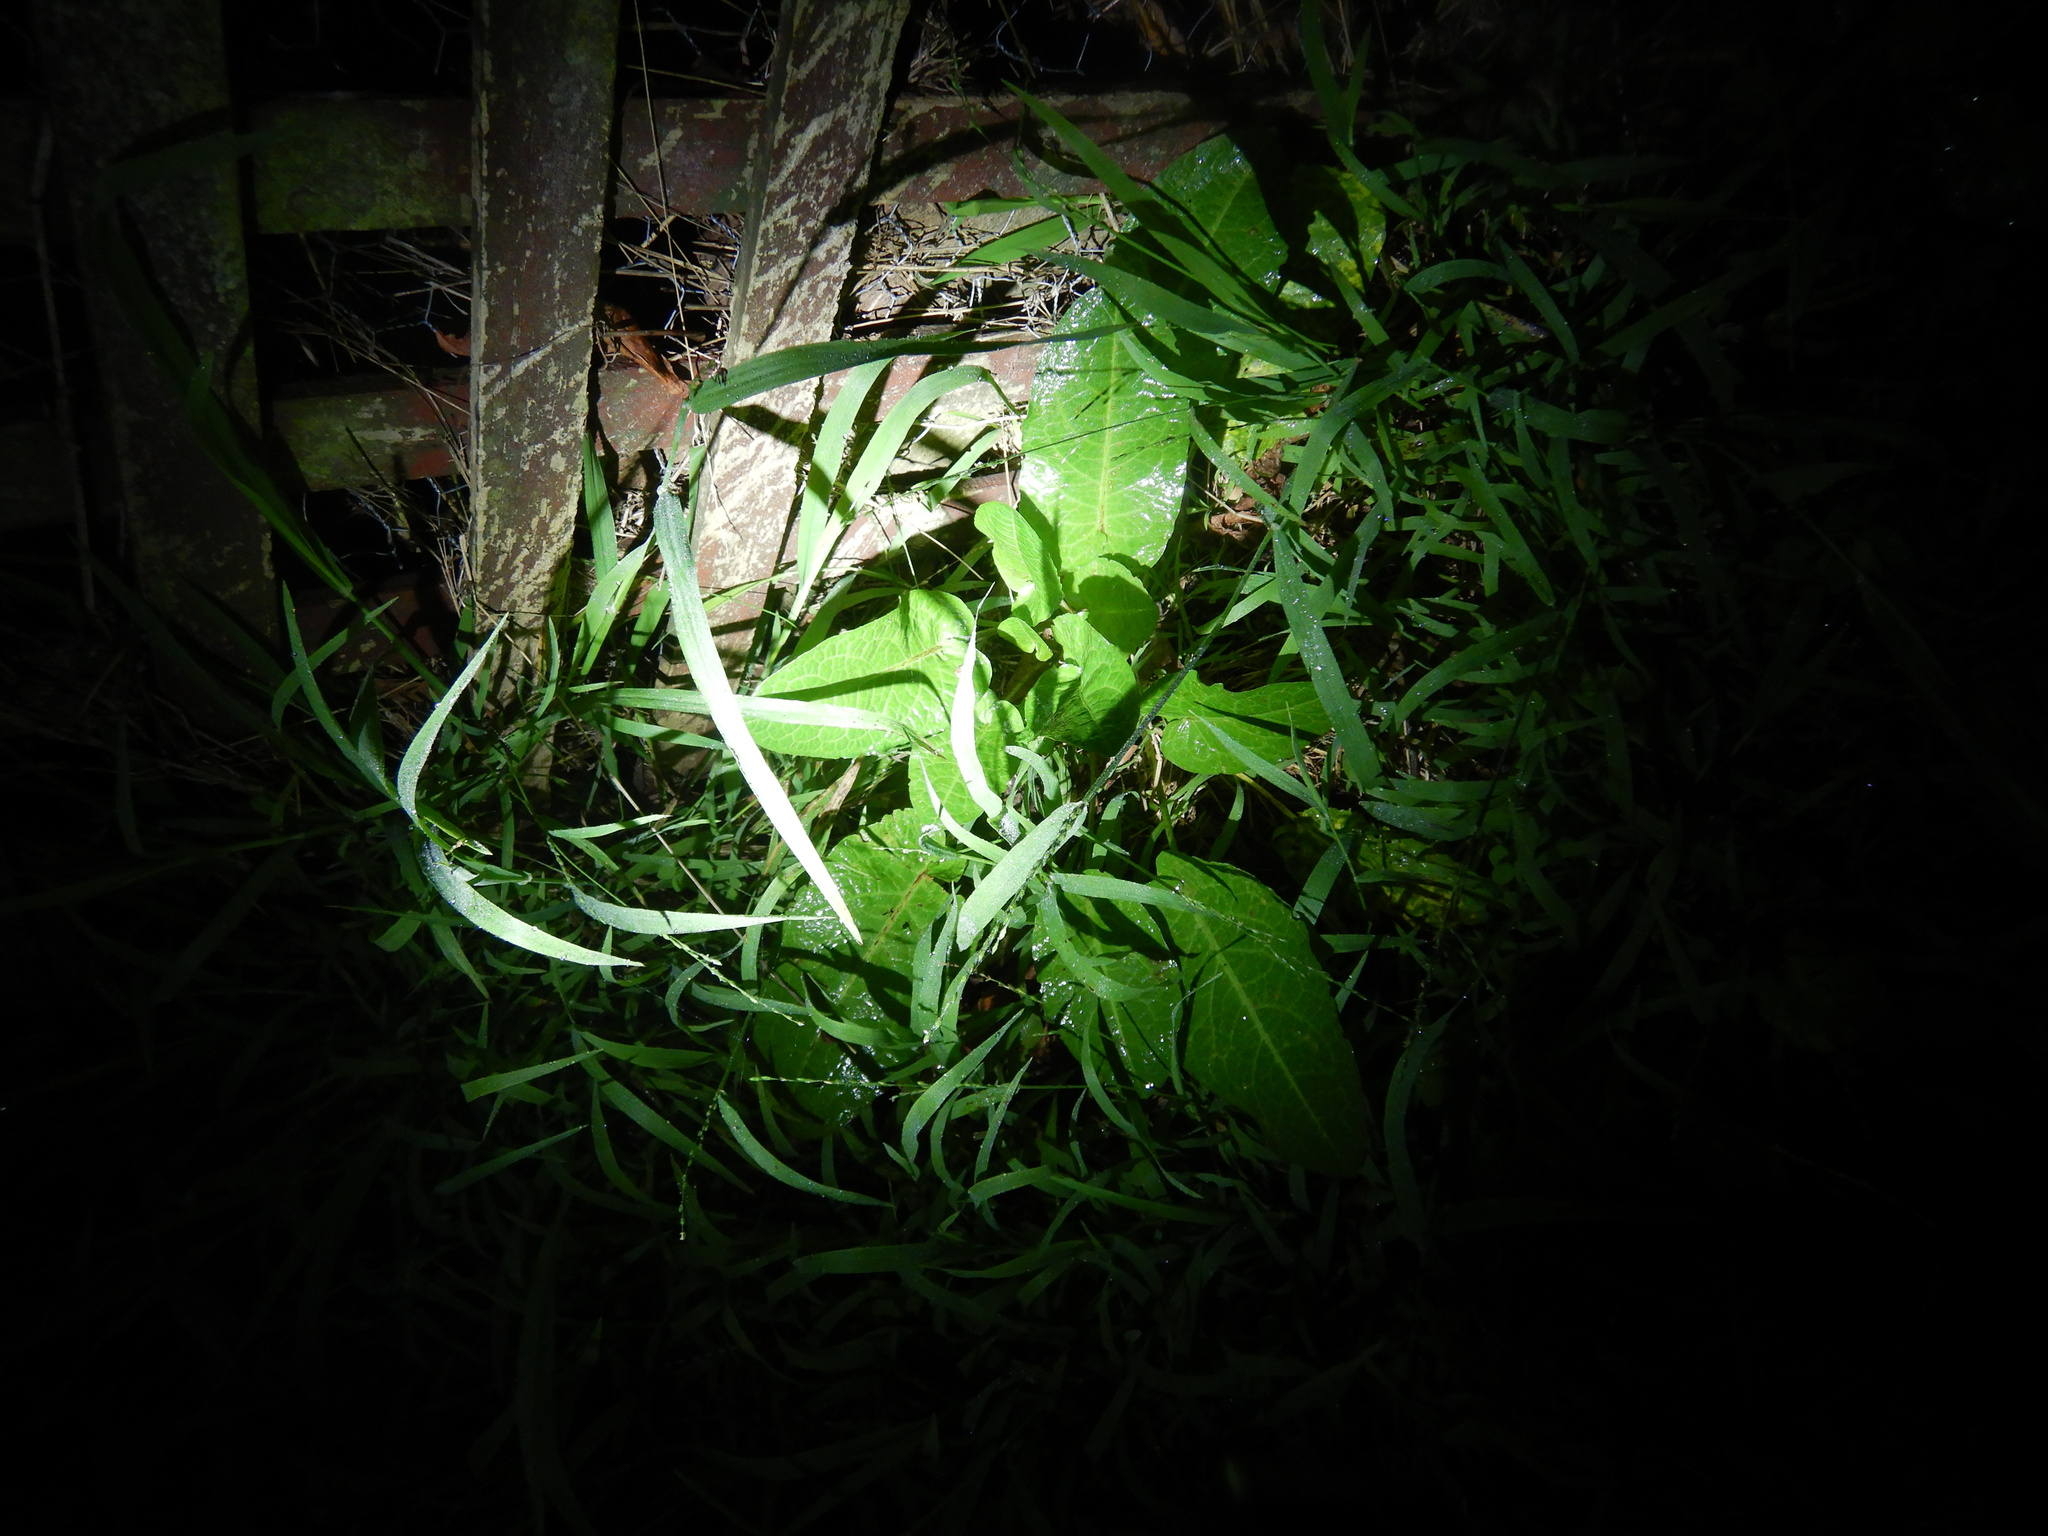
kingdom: Plantae
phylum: Tracheophyta
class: Magnoliopsida
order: Caryophyllales
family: Polygonaceae
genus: Rumex
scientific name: Rumex obtusifolius
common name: Bitter dock
